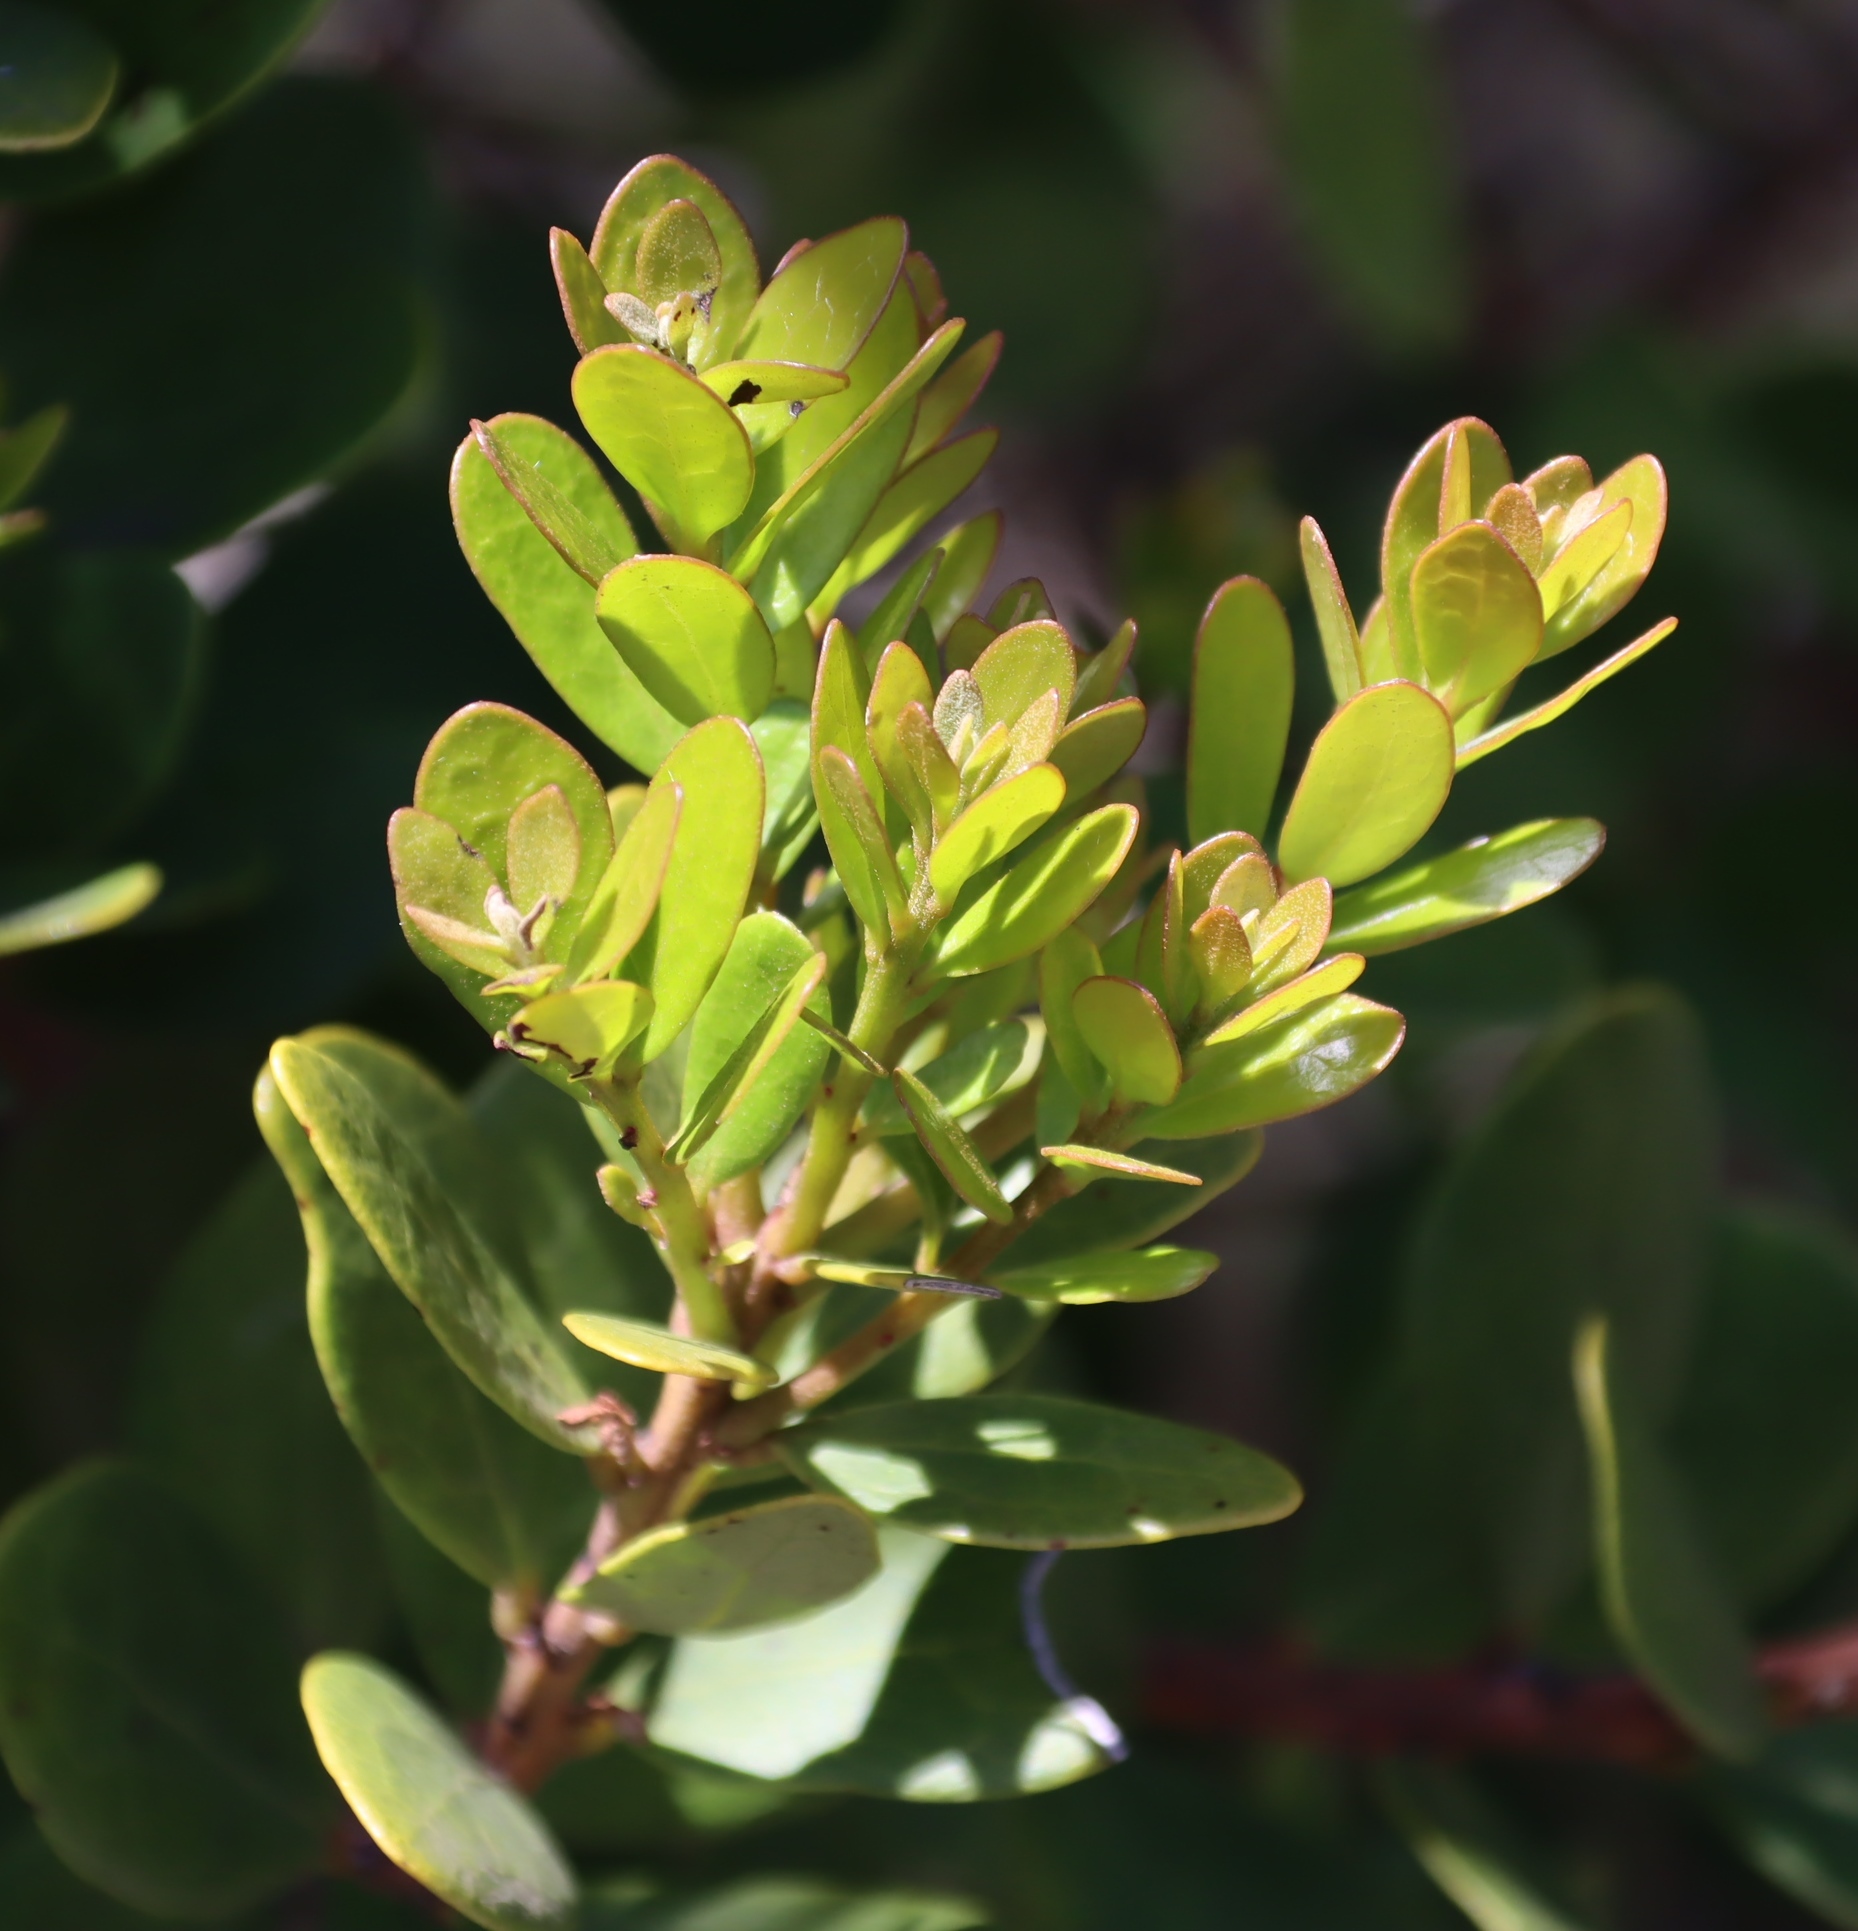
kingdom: Plantae
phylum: Tracheophyta
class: Magnoliopsida
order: Ericales
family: Ebenaceae
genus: Euclea
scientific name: Euclea racemosa
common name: Dune guarri
